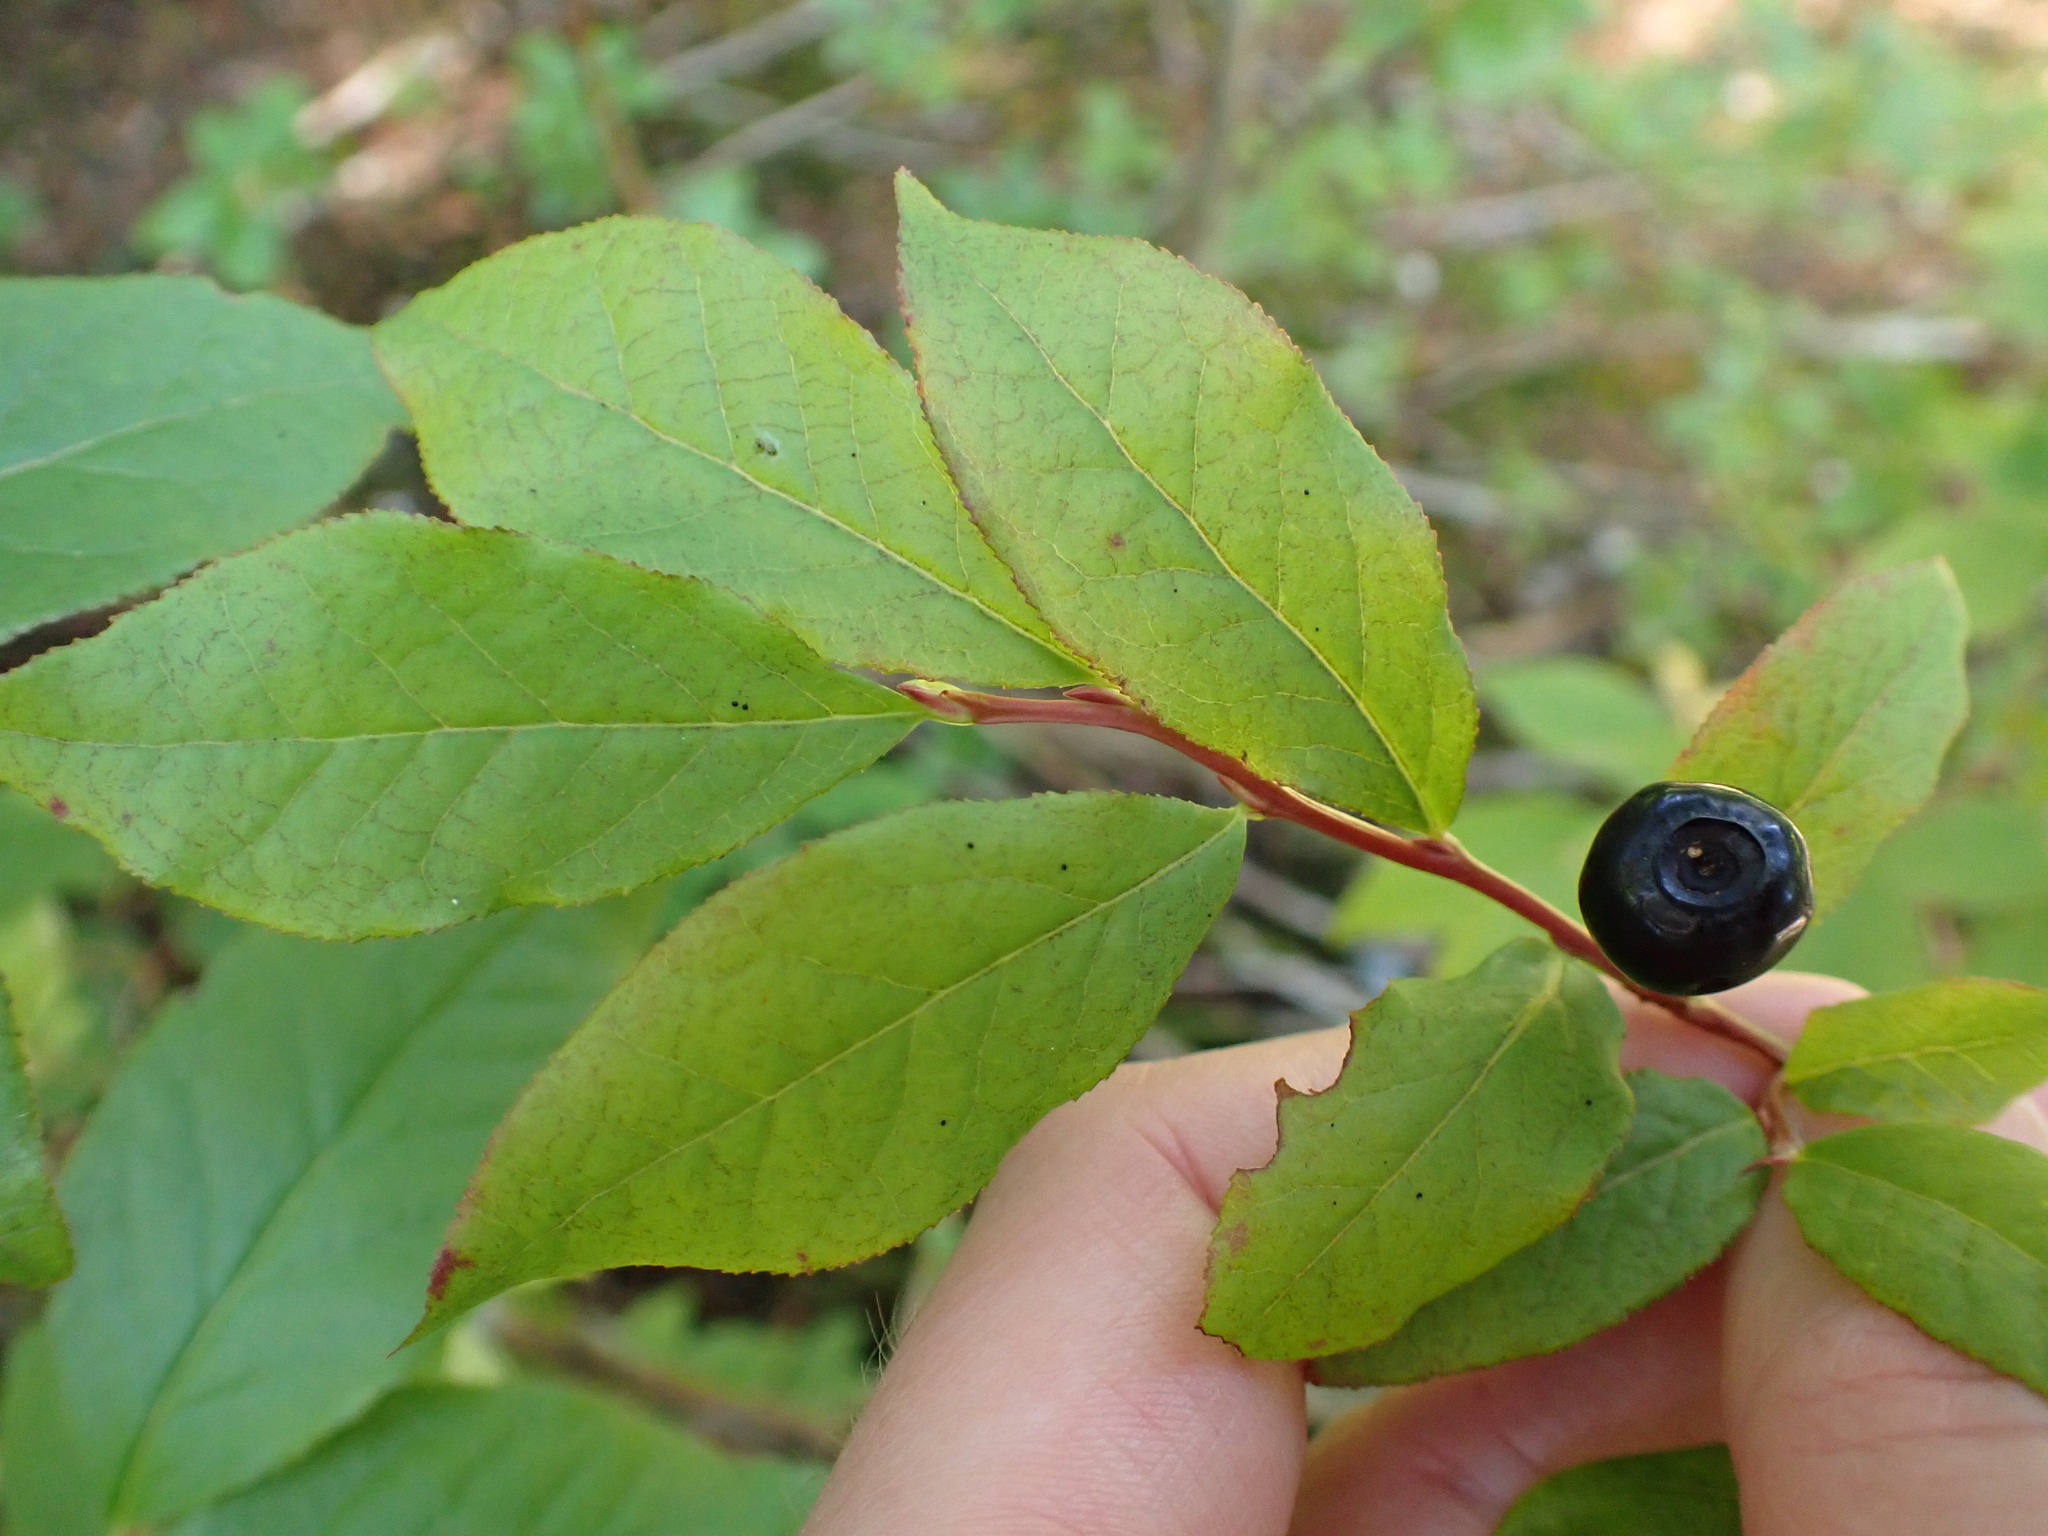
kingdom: Plantae
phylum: Tracheophyta
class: Magnoliopsida
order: Ericales
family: Ericaceae
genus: Vaccinium
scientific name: Vaccinium membranaceum
